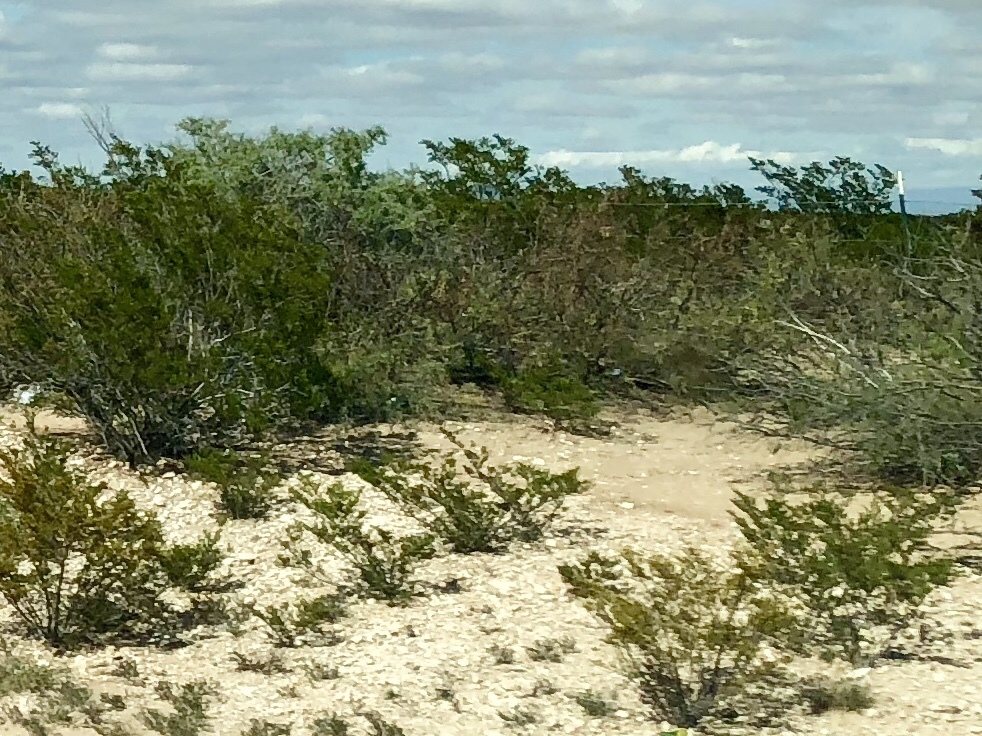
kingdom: Plantae
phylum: Tracheophyta
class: Magnoliopsida
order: Zygophyllales
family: Zygophyllaceae
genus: Larrea
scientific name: Larrea tridentata
